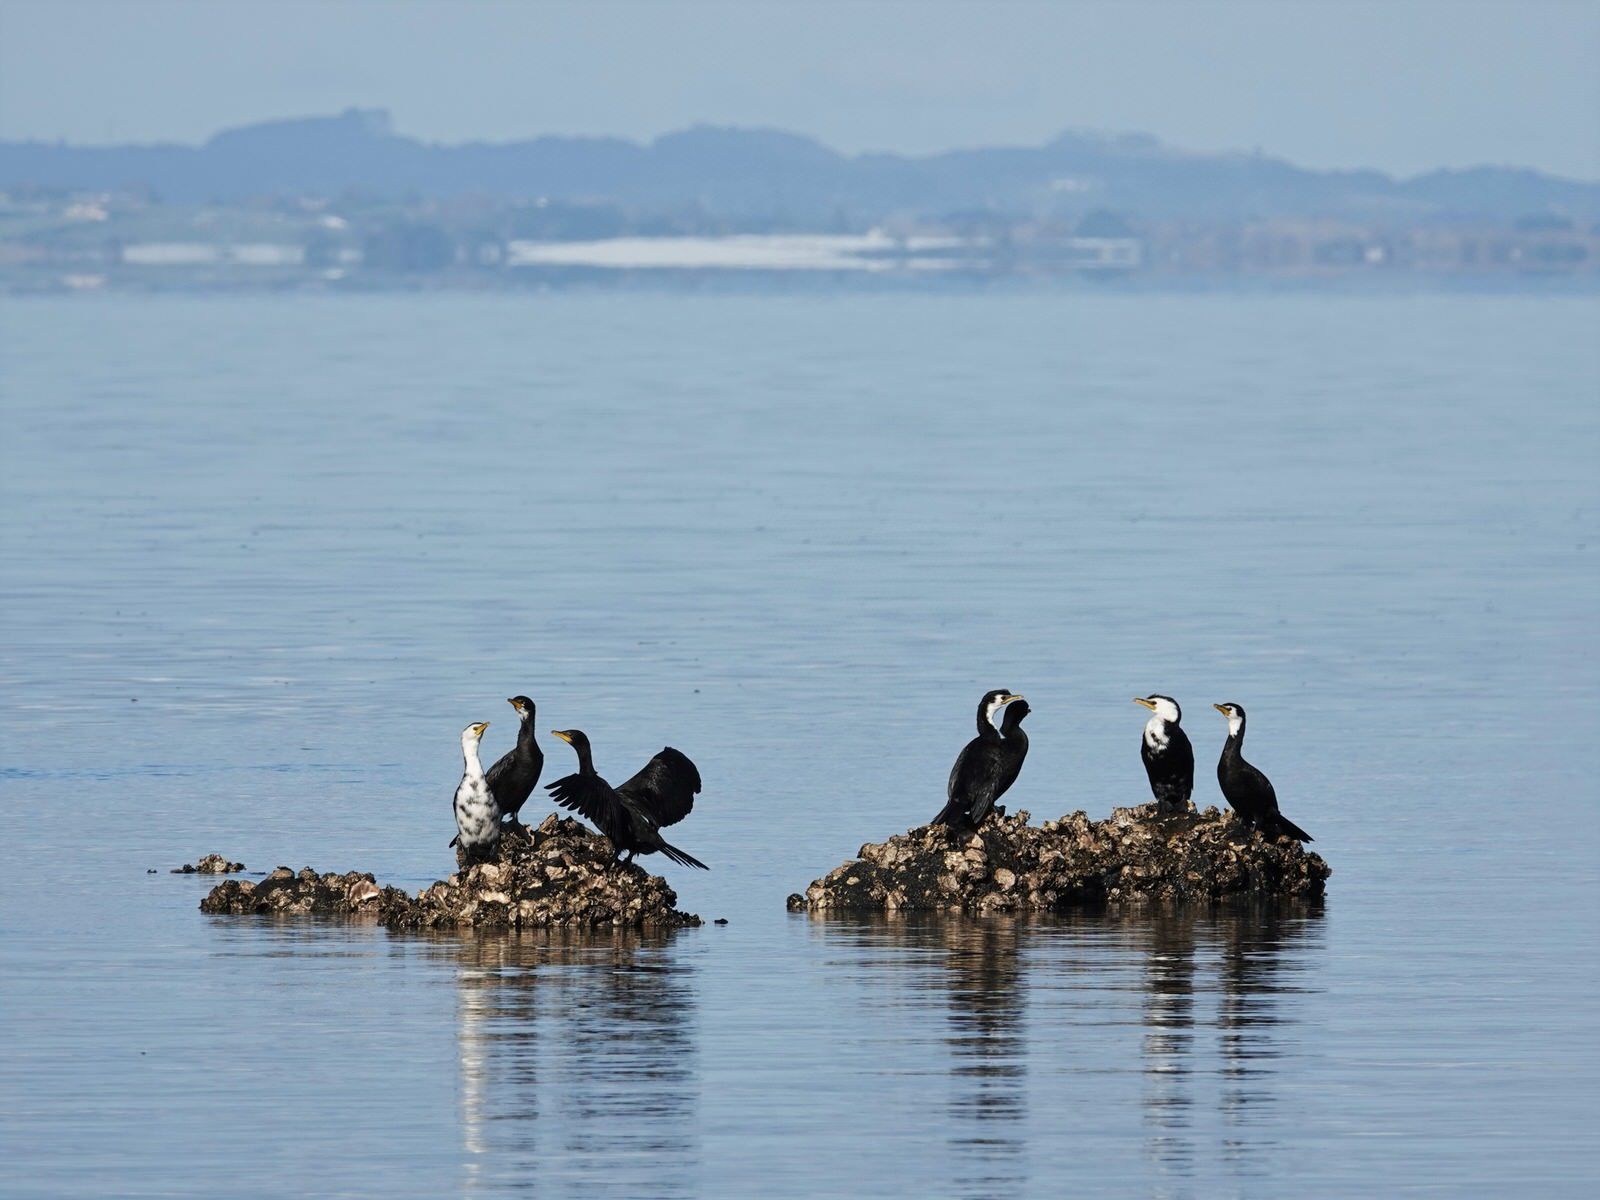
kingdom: Animalia
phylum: Chordata
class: Aves
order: Suliformes
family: Phalacrocoracidae
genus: Microcarbo
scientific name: Microcarbo melanoleucos
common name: Little pied cormorant
